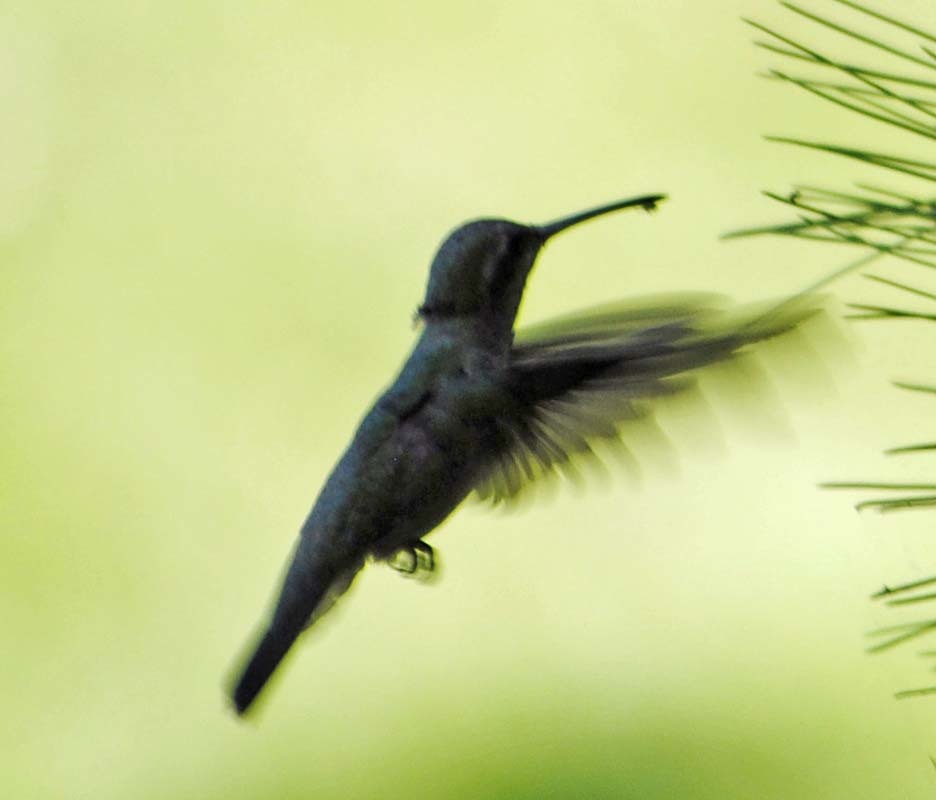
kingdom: Animalia
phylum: Chordata
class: Aves
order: Apodiformes
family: Trochilidae
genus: Cynanthus
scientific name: Cynanthus latirostris
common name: Broad-billed hummingbird
